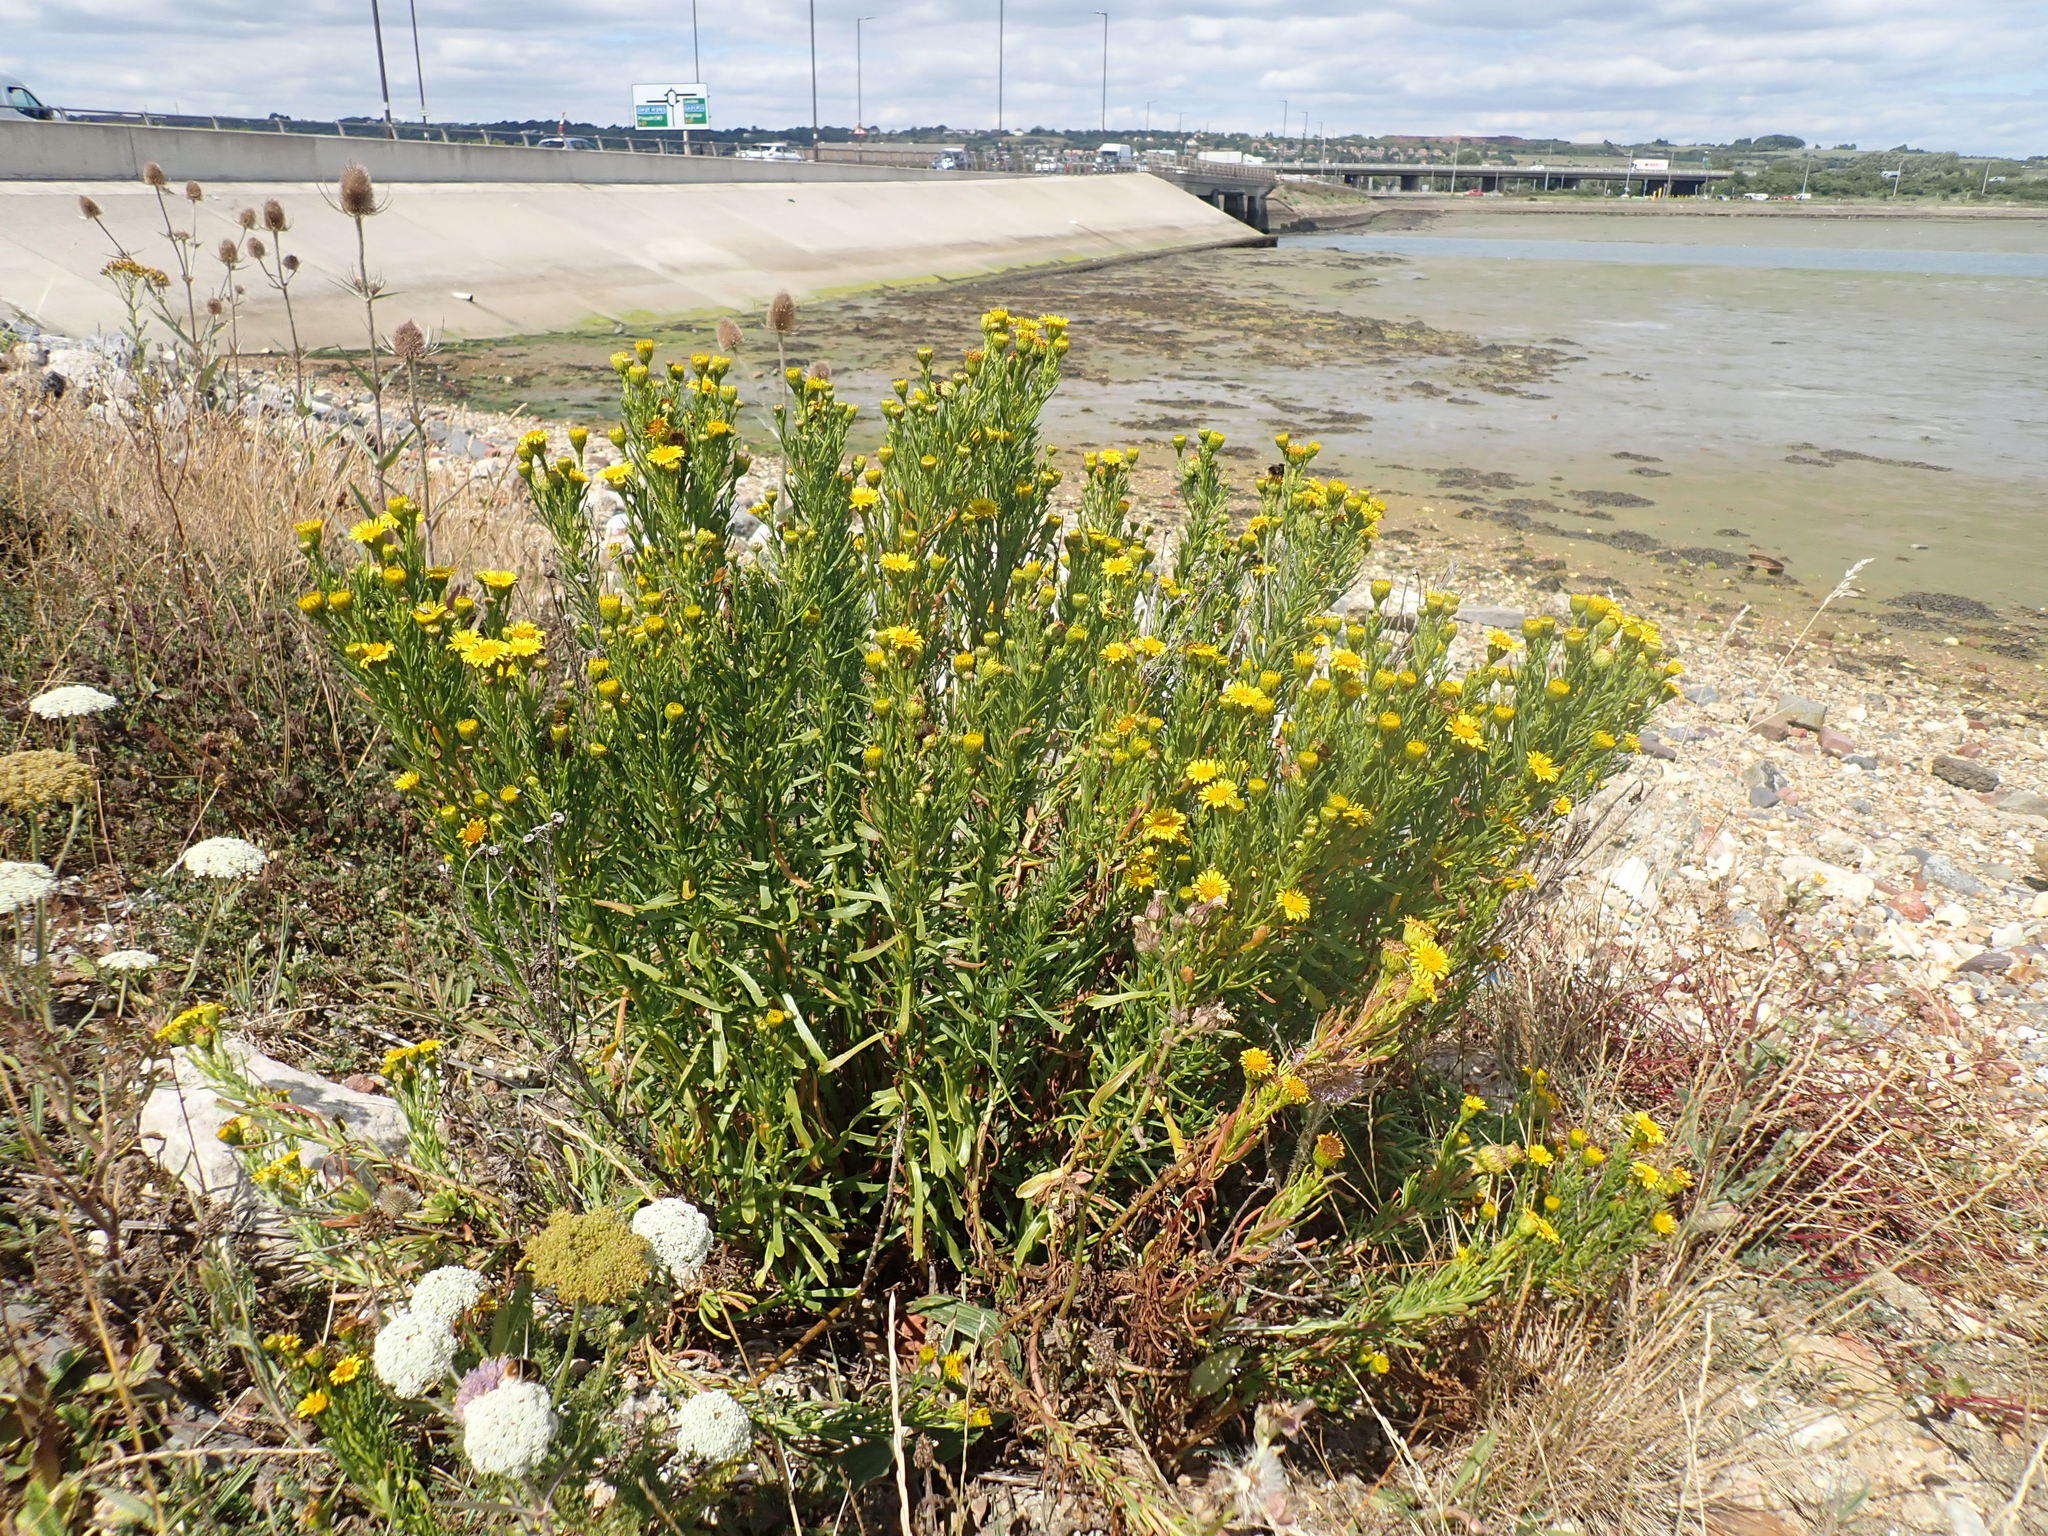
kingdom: Plantae
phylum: Tracheophyta
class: Magnoliopsida
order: Asterales
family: Asteraceae
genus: Limbarda
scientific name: Limbarda crithmoides
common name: Golden samphire
